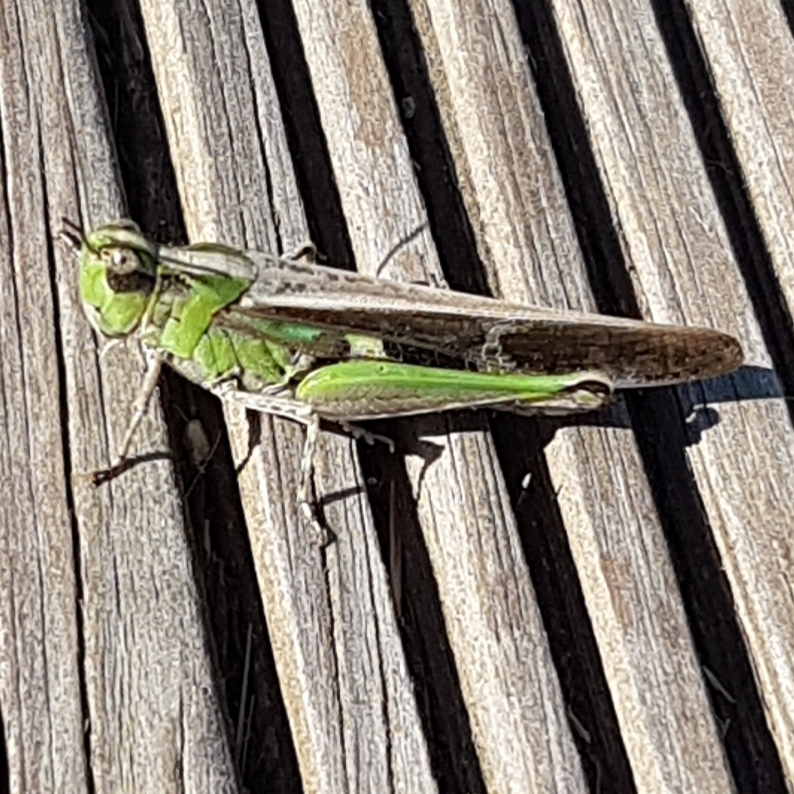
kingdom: Animalia
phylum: Arthropoda
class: Insecta
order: Orthoptera
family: Acrididae
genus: Aiolopus
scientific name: Aiolopus puissanti
